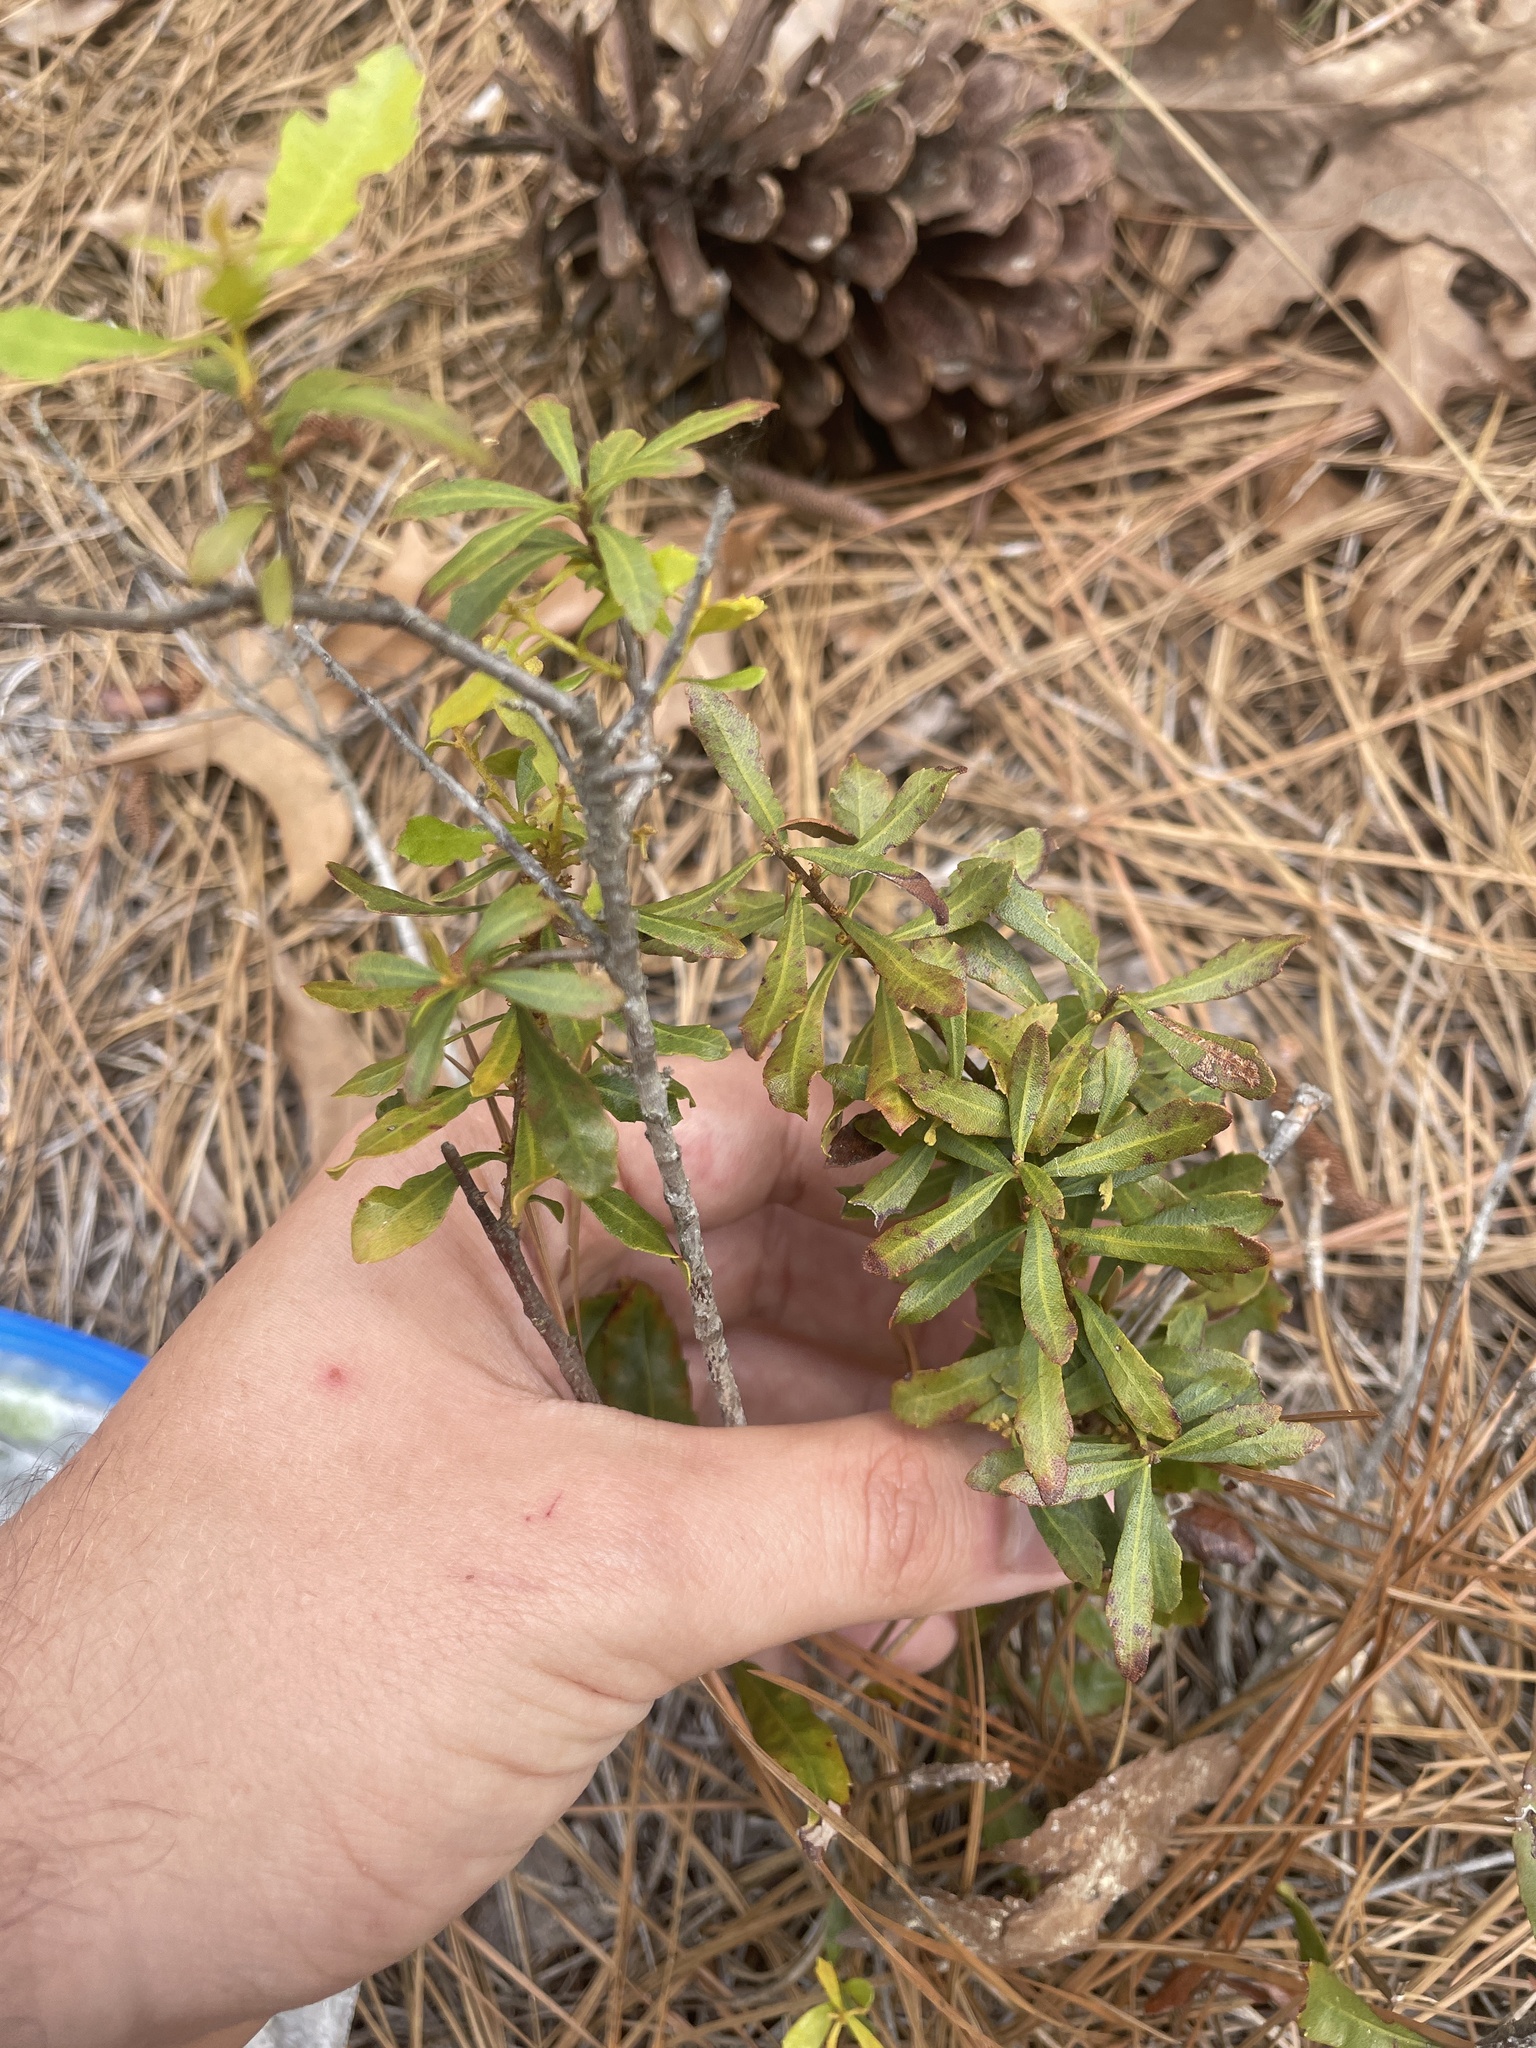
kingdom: Plantae
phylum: Tracheophyta
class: Magnoliopsida
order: Fagales
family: Myricaceae
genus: Morella
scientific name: Morella cerifera
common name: Wax myrtle
